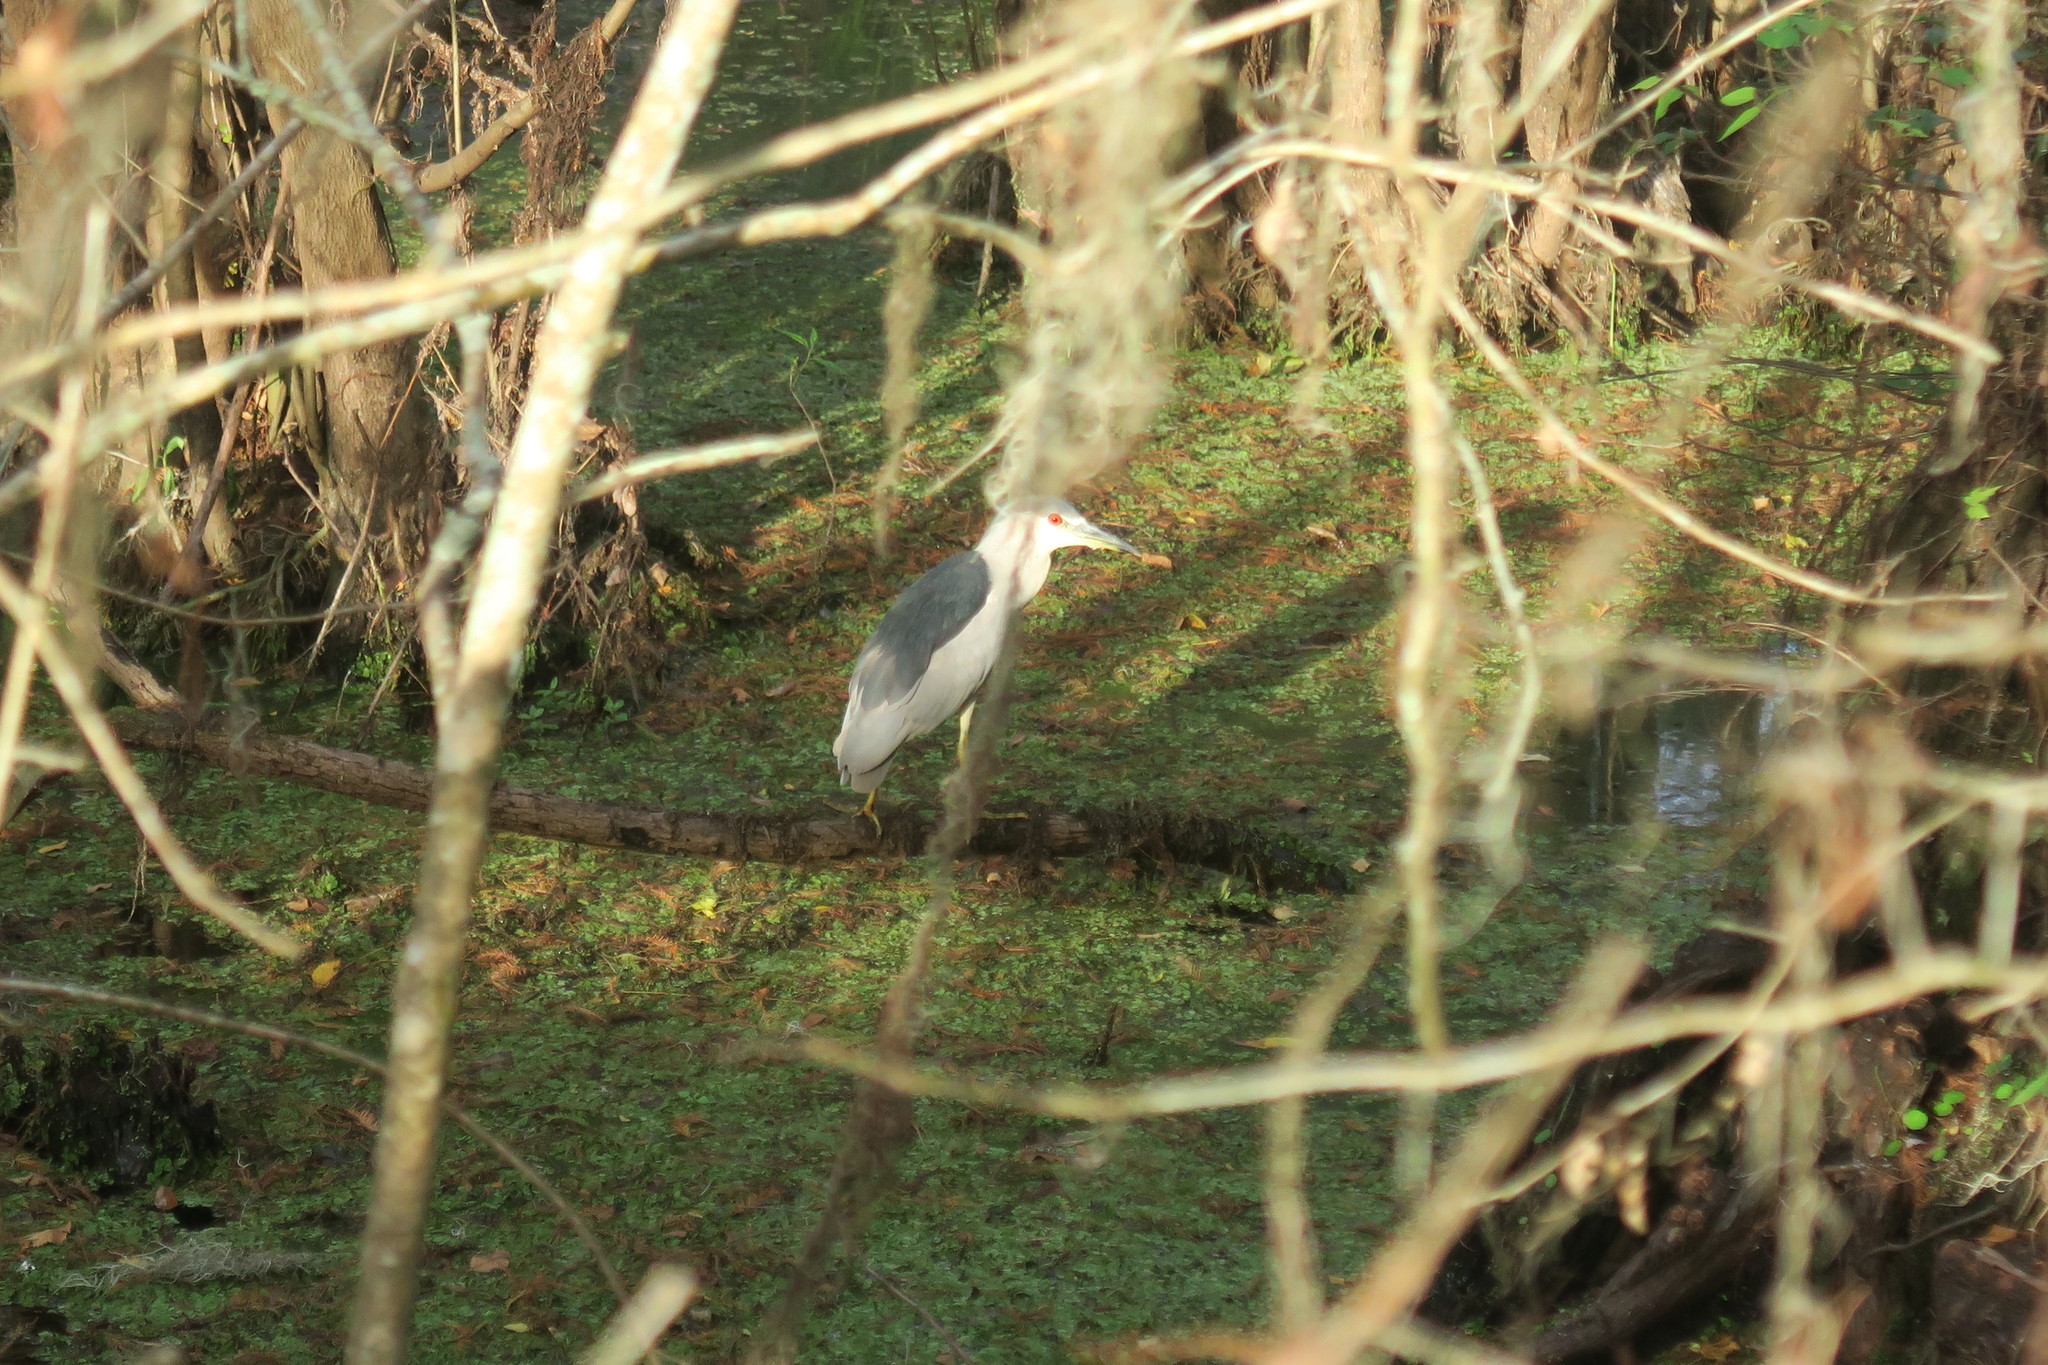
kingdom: Animalia
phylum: Chordata
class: Aves
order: Pelecaniformes
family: Ardeidae
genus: Nycticorax
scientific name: Nycticorax nycticorax
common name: Black-crowned night heron
